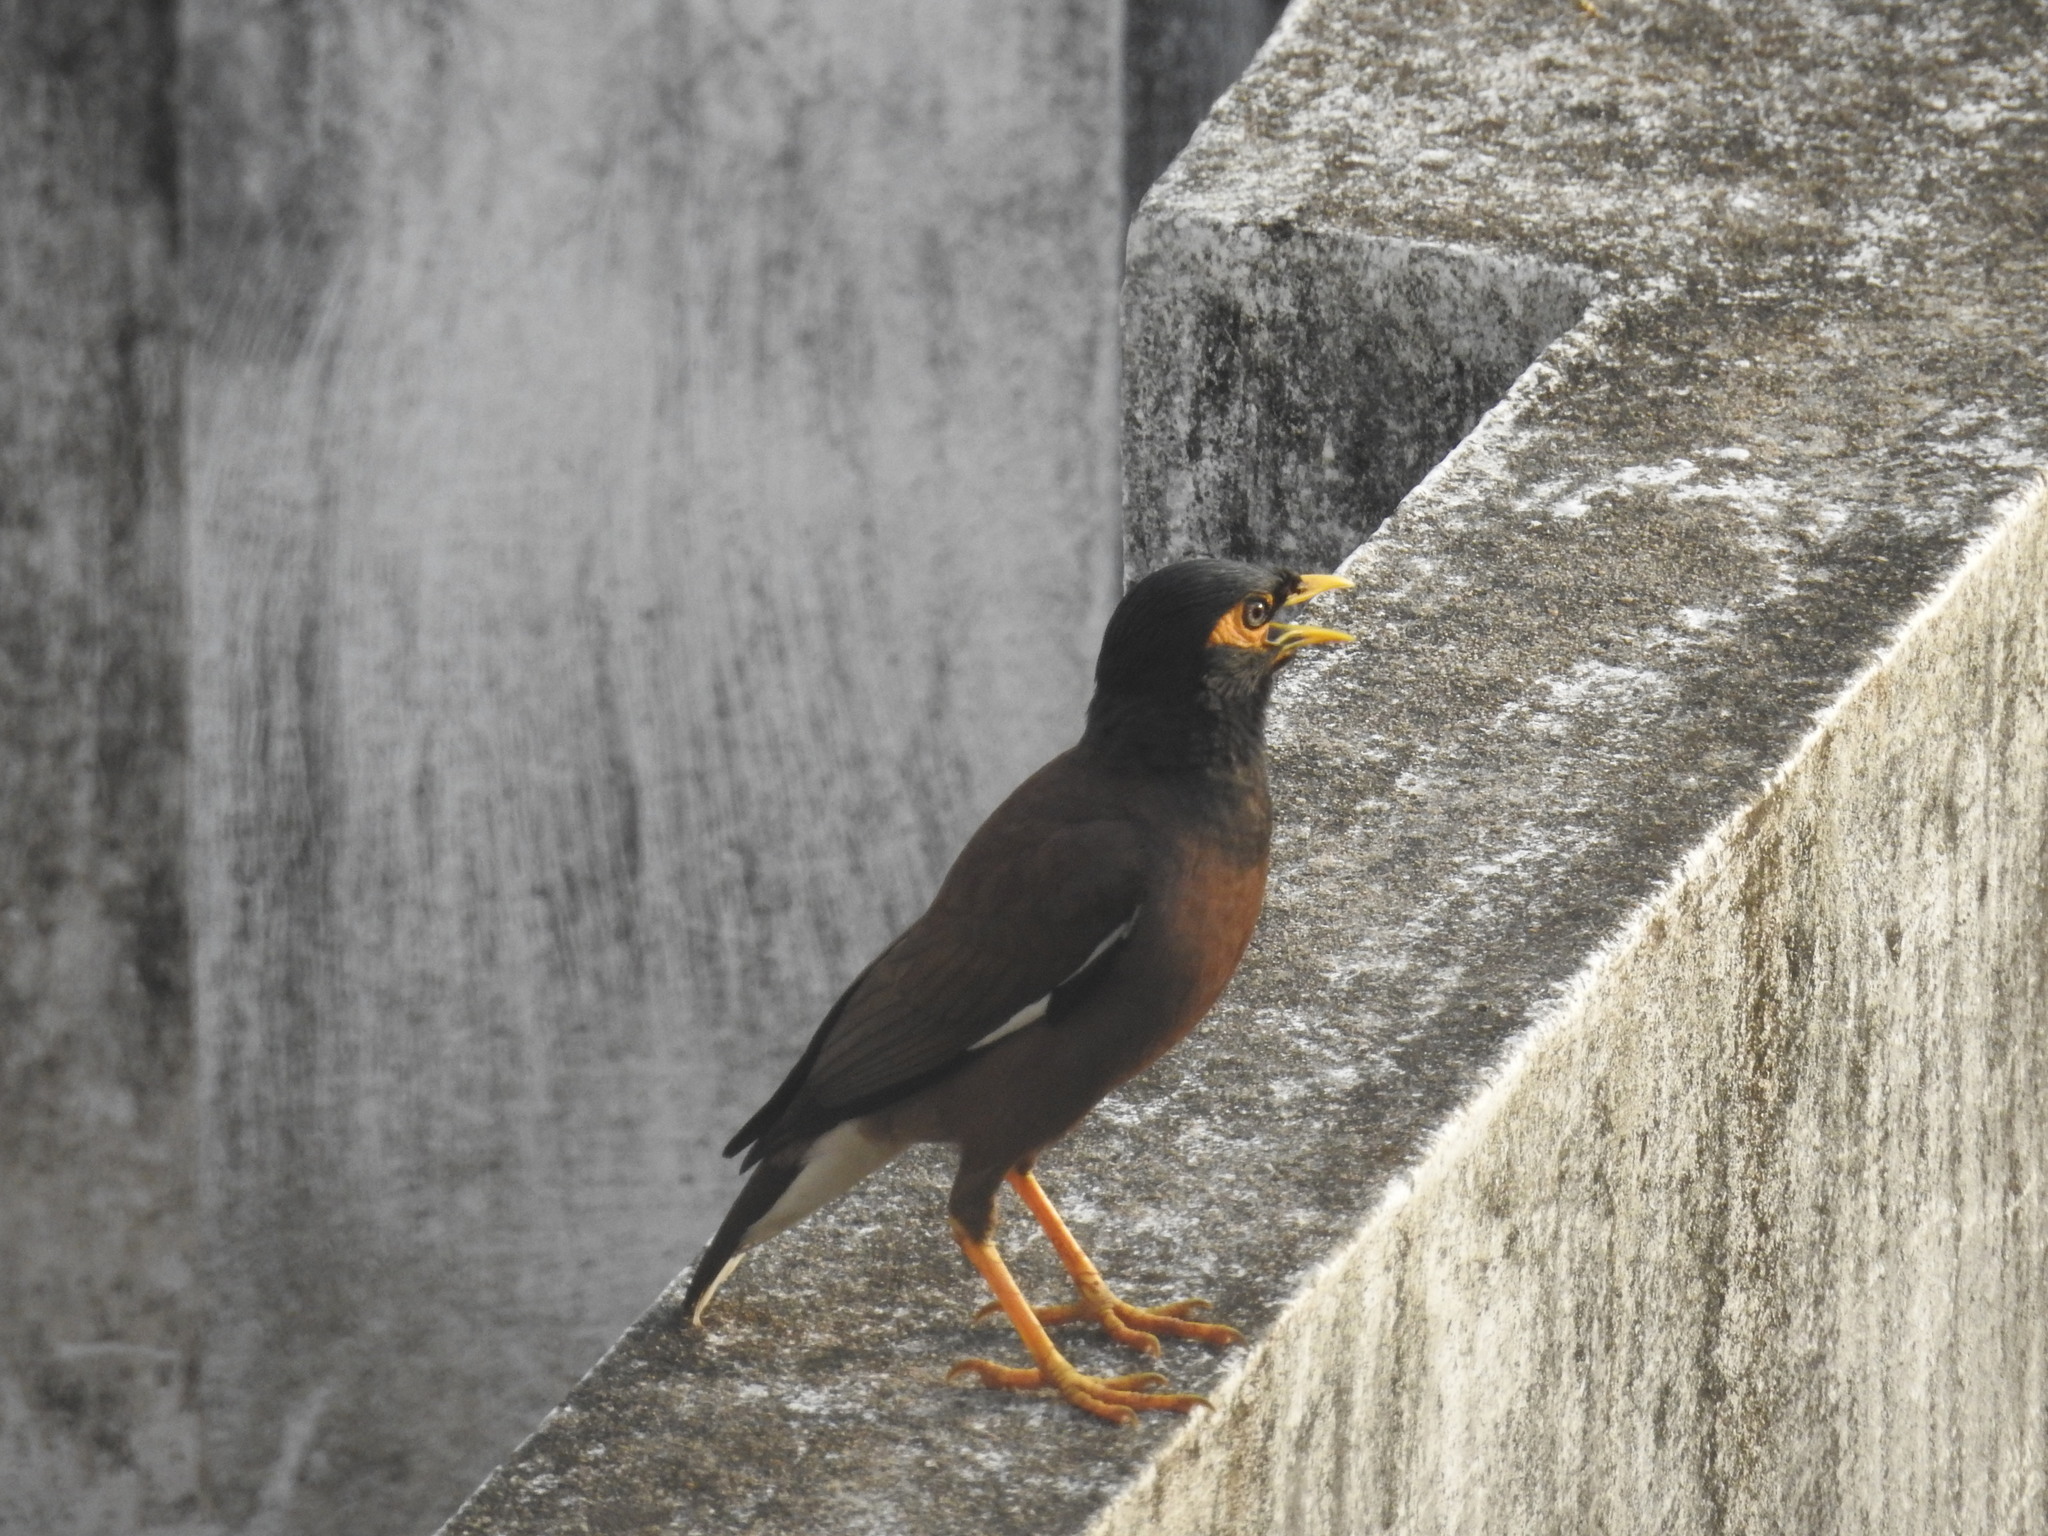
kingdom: Animalia
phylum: Chordata
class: Aves
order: Passeriformes
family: Sturnidae
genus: Acridotheres
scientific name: Acridotheres tristis
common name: Common myna
